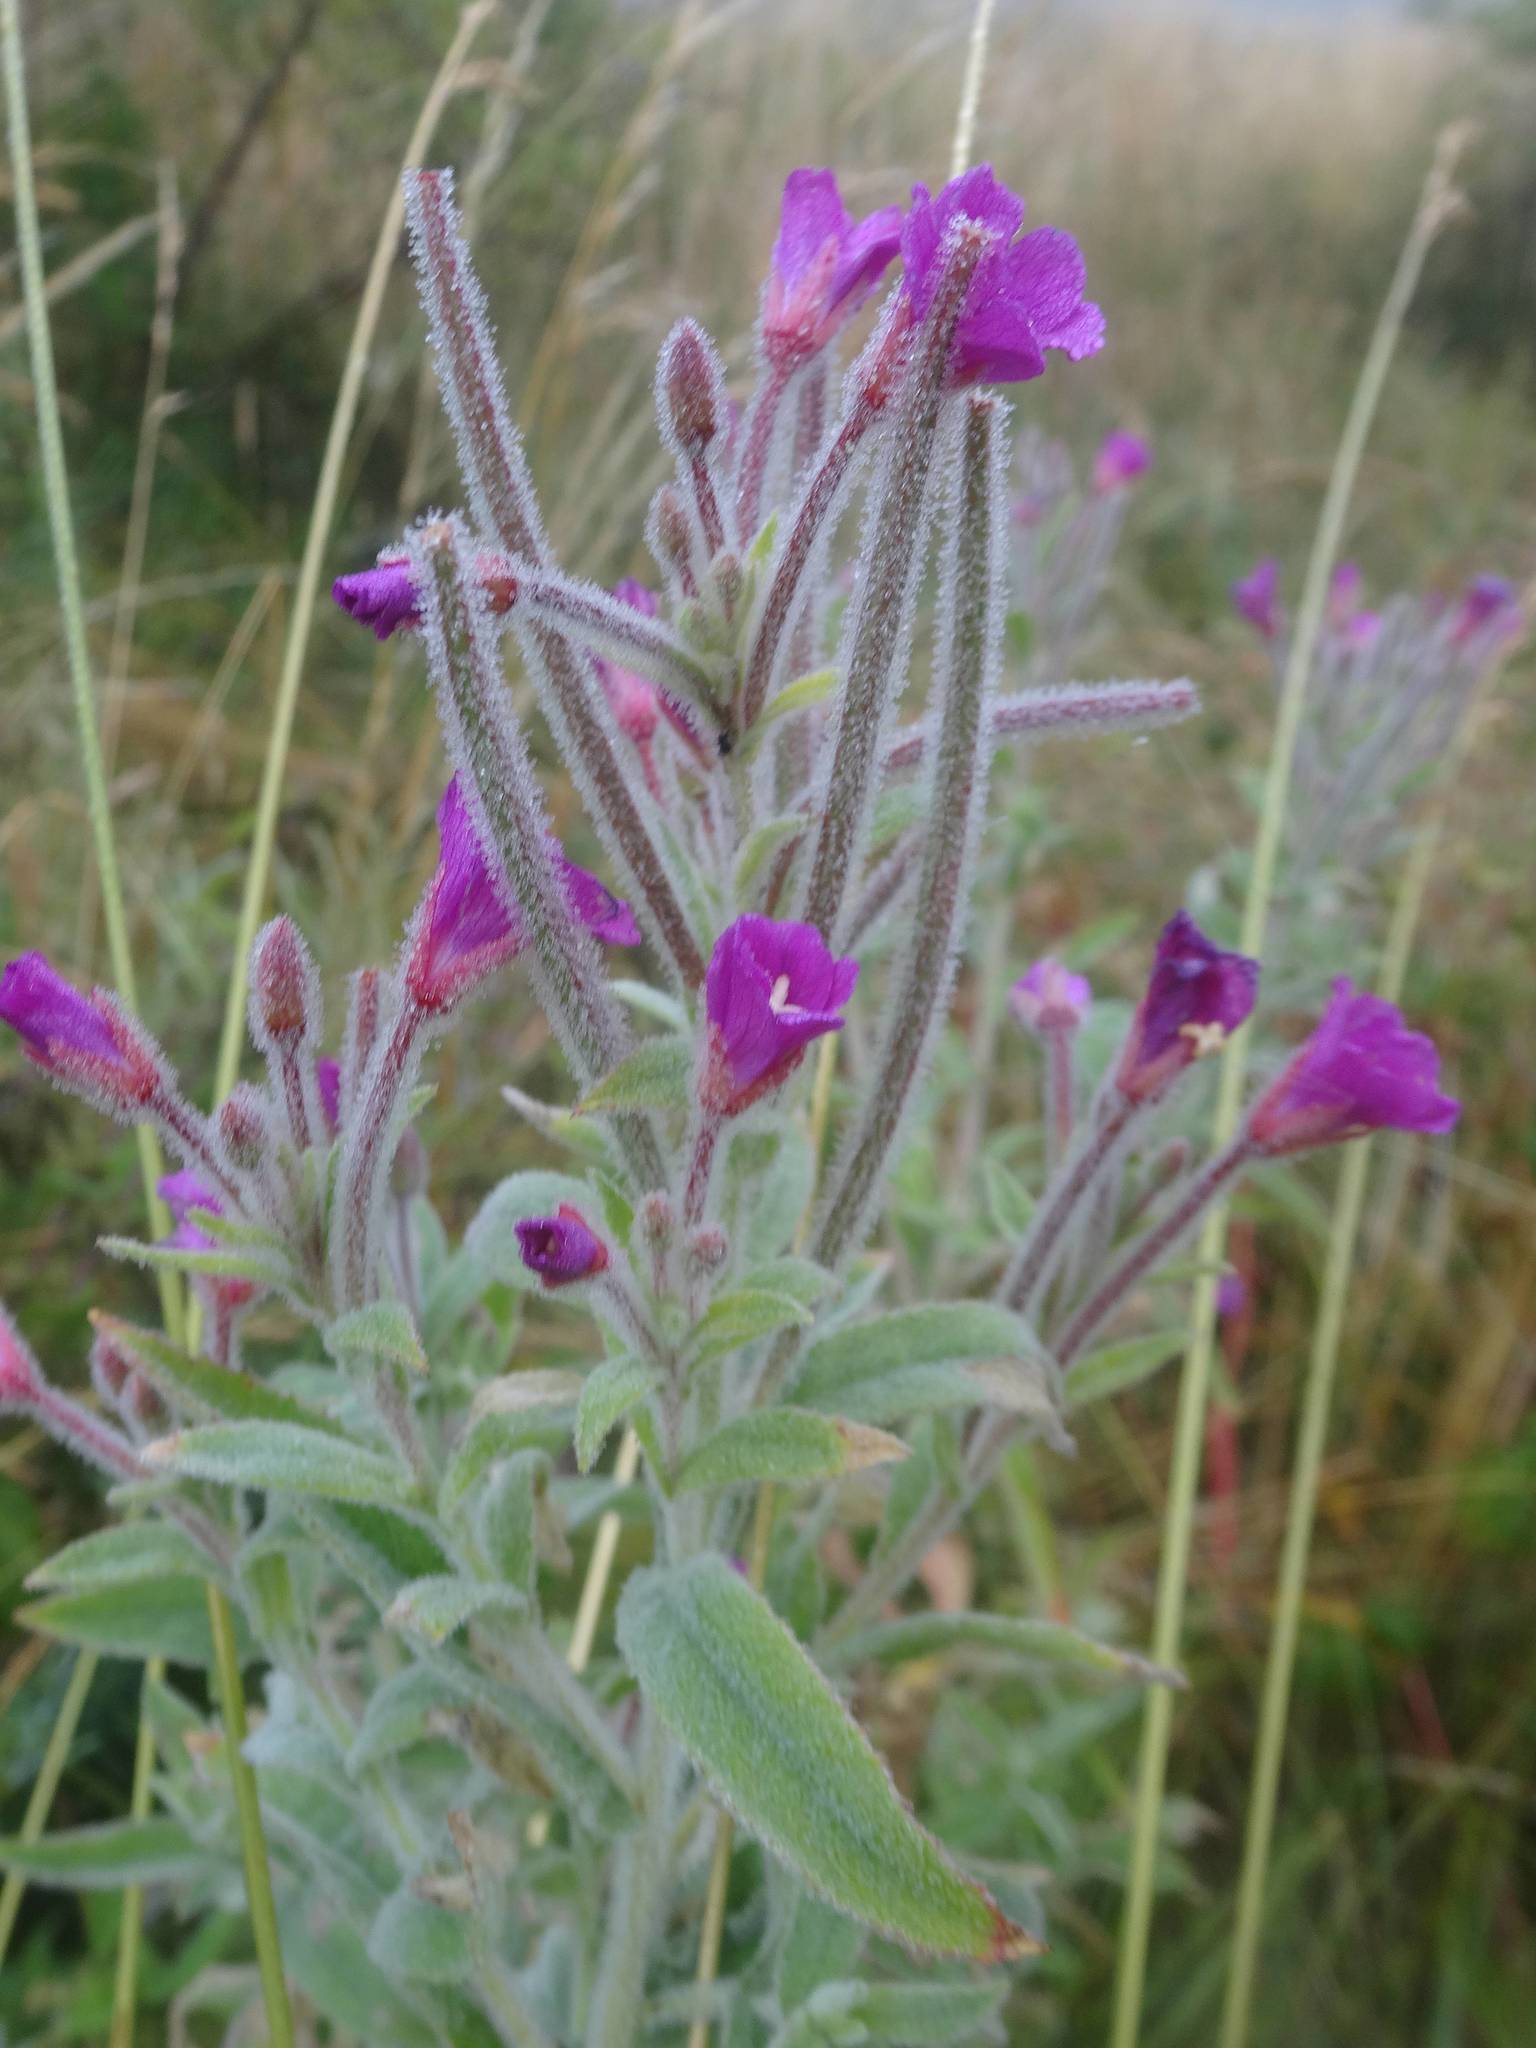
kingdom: Plantae
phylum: Tracheophyta
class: Magnoliopsida
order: Myrtales
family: Onagraceae
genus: Epilobium
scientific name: Epilobium hirsutum
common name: Great willowherb
